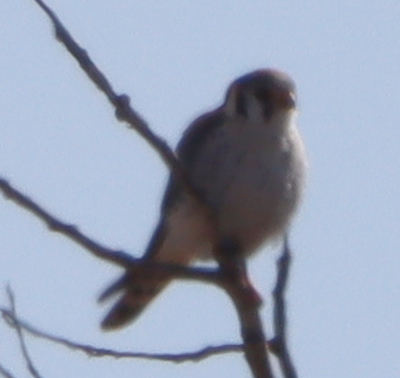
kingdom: Animalia
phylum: Chordata
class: Aves
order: Falconiformes
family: Falconidae
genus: Falco
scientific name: Falco sparverius
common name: American kestrel
